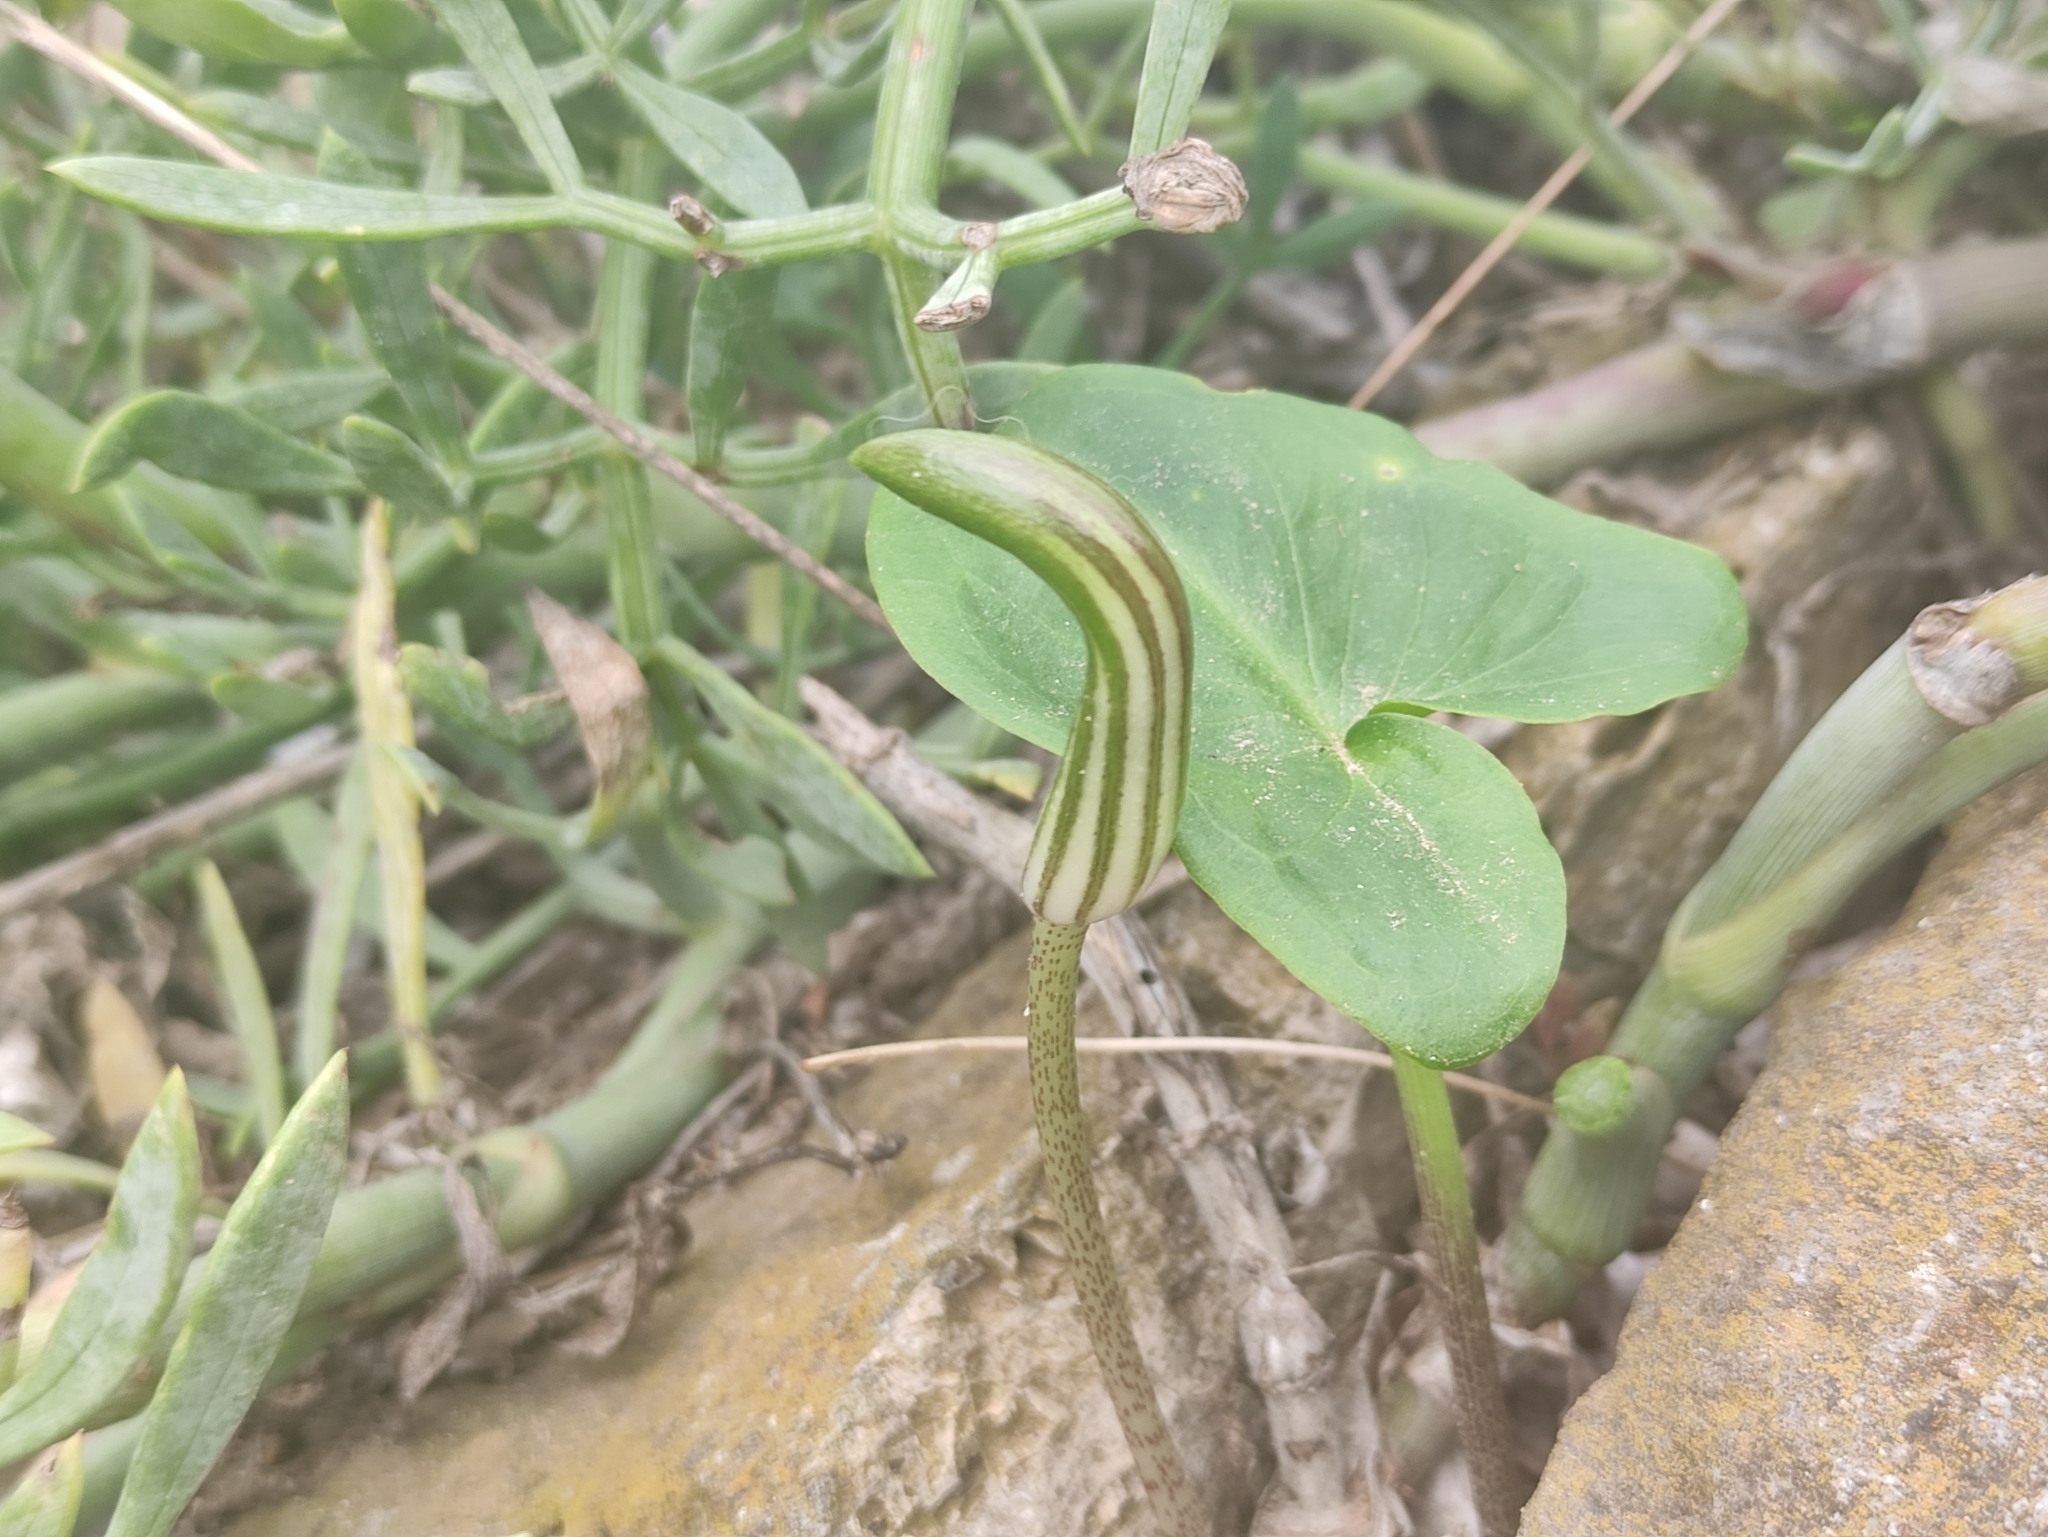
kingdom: Plantae
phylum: Tracheophyta
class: Liliopsida
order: Alismatales
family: Araceae
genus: Arisarum
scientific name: Arisarum vulgare
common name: Common arisarum
